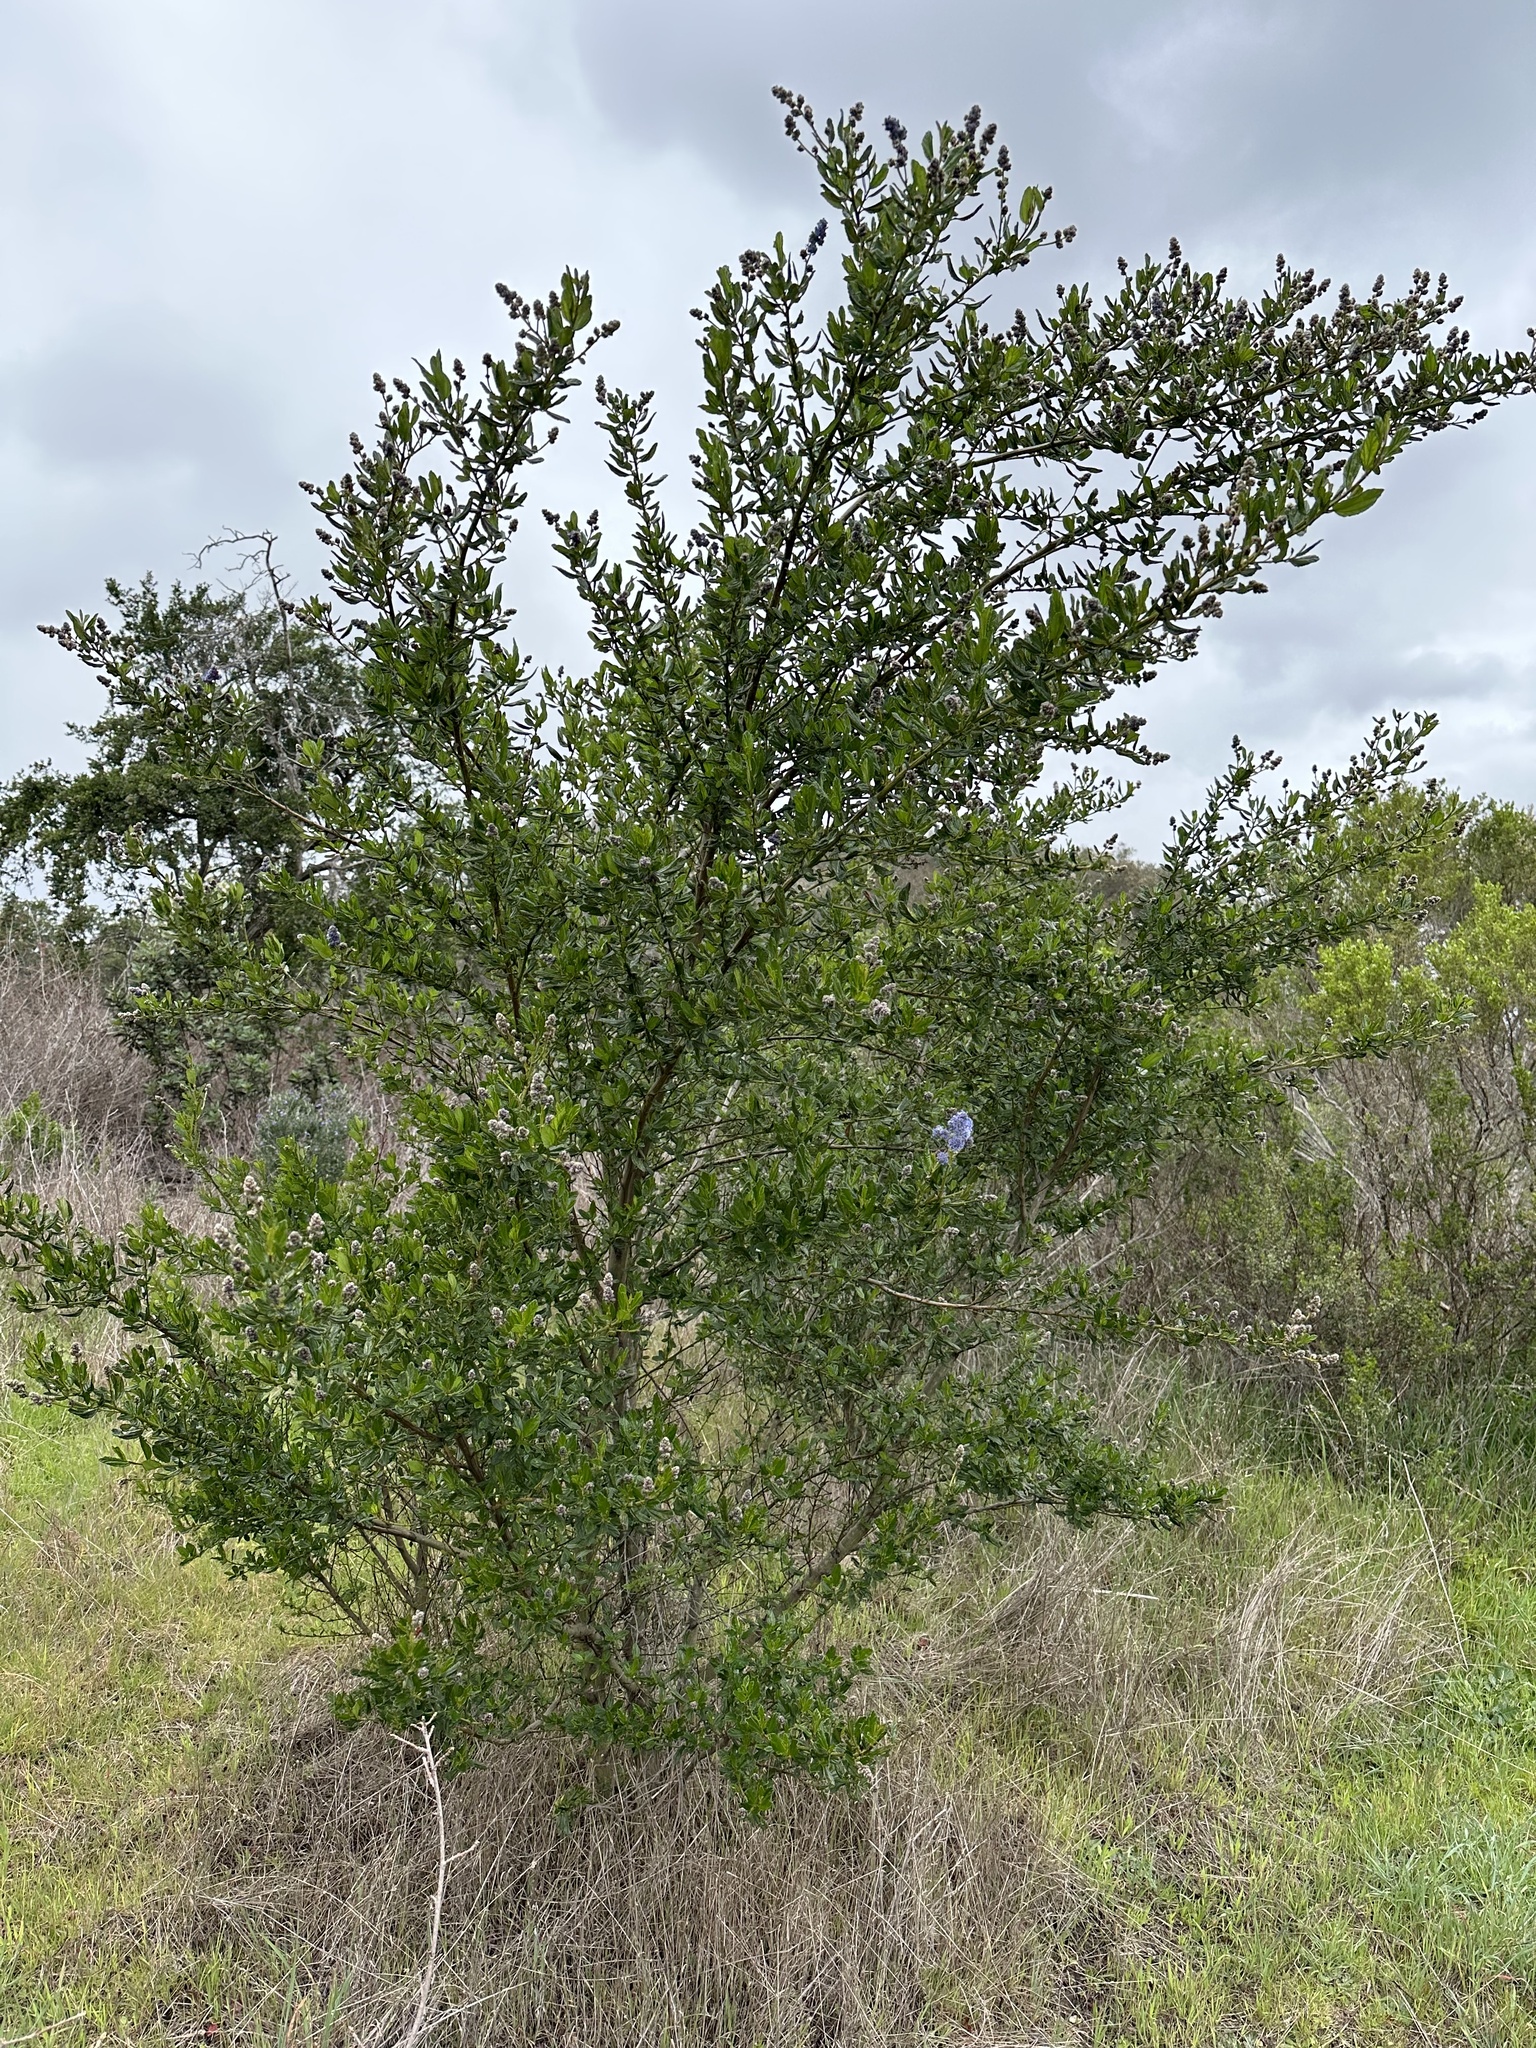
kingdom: Plantae
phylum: Tracheophyta
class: Magnoliopsida
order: Rosales
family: Rhamnaceae
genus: Ceanothus
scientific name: Ceanothus griseus
